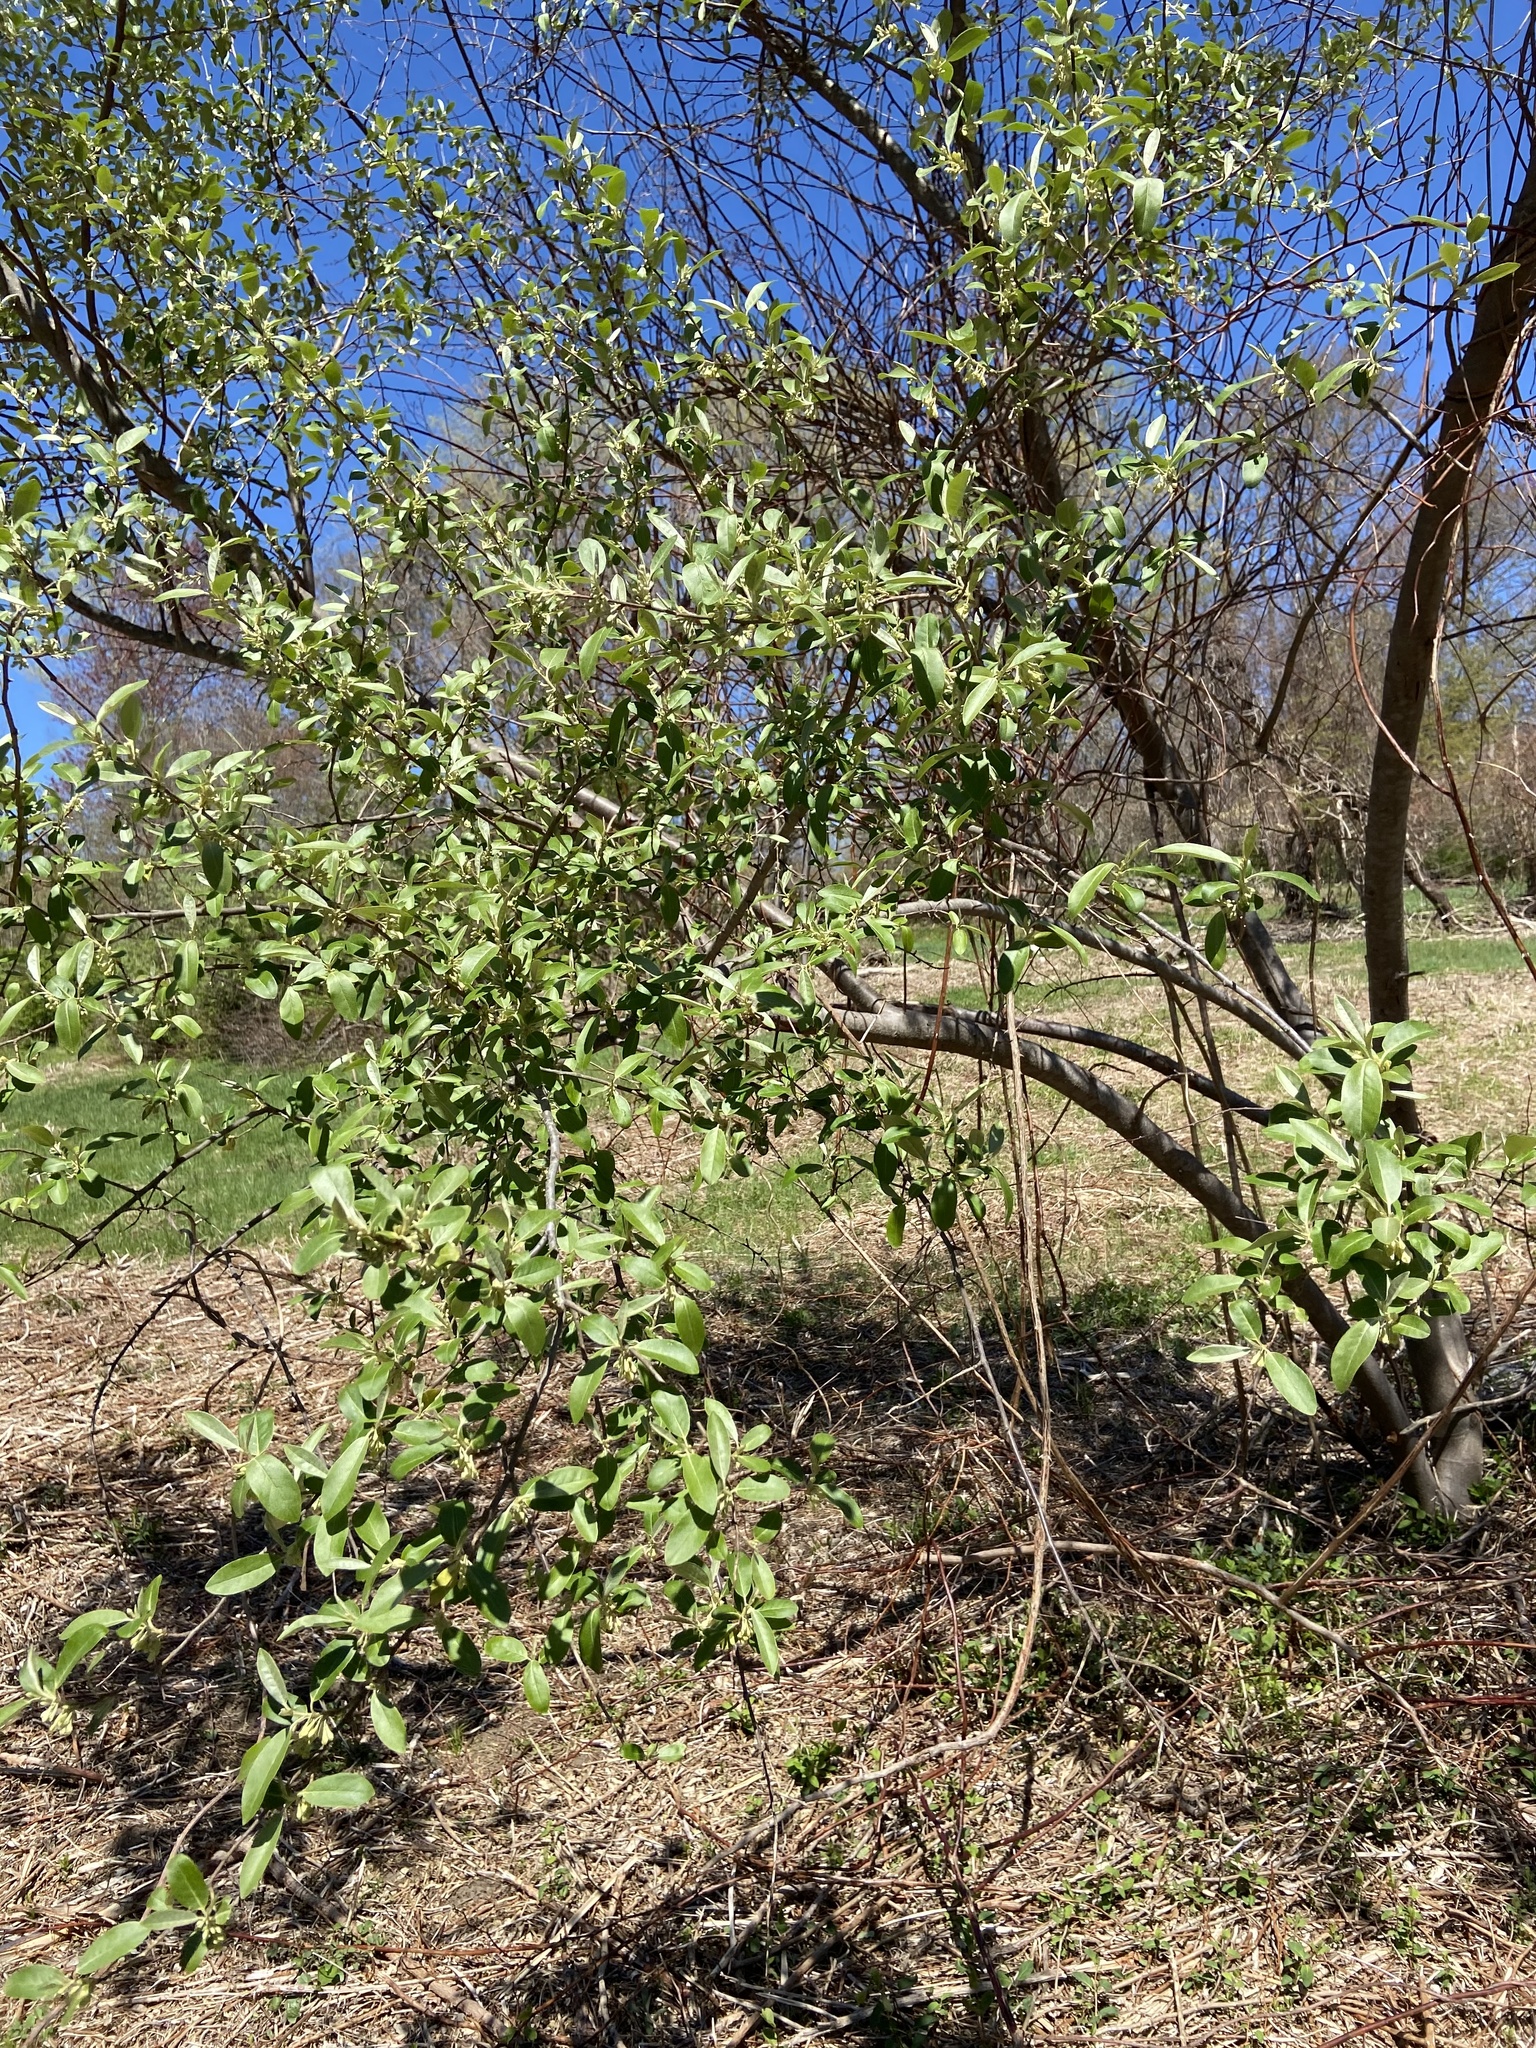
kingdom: Plantae
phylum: Tracheophyta
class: Magnoliopsida
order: Rosales
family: Elaeagnaceae
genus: Elaeagnus
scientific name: Elaeagnus umbellata
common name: Autumn olive
